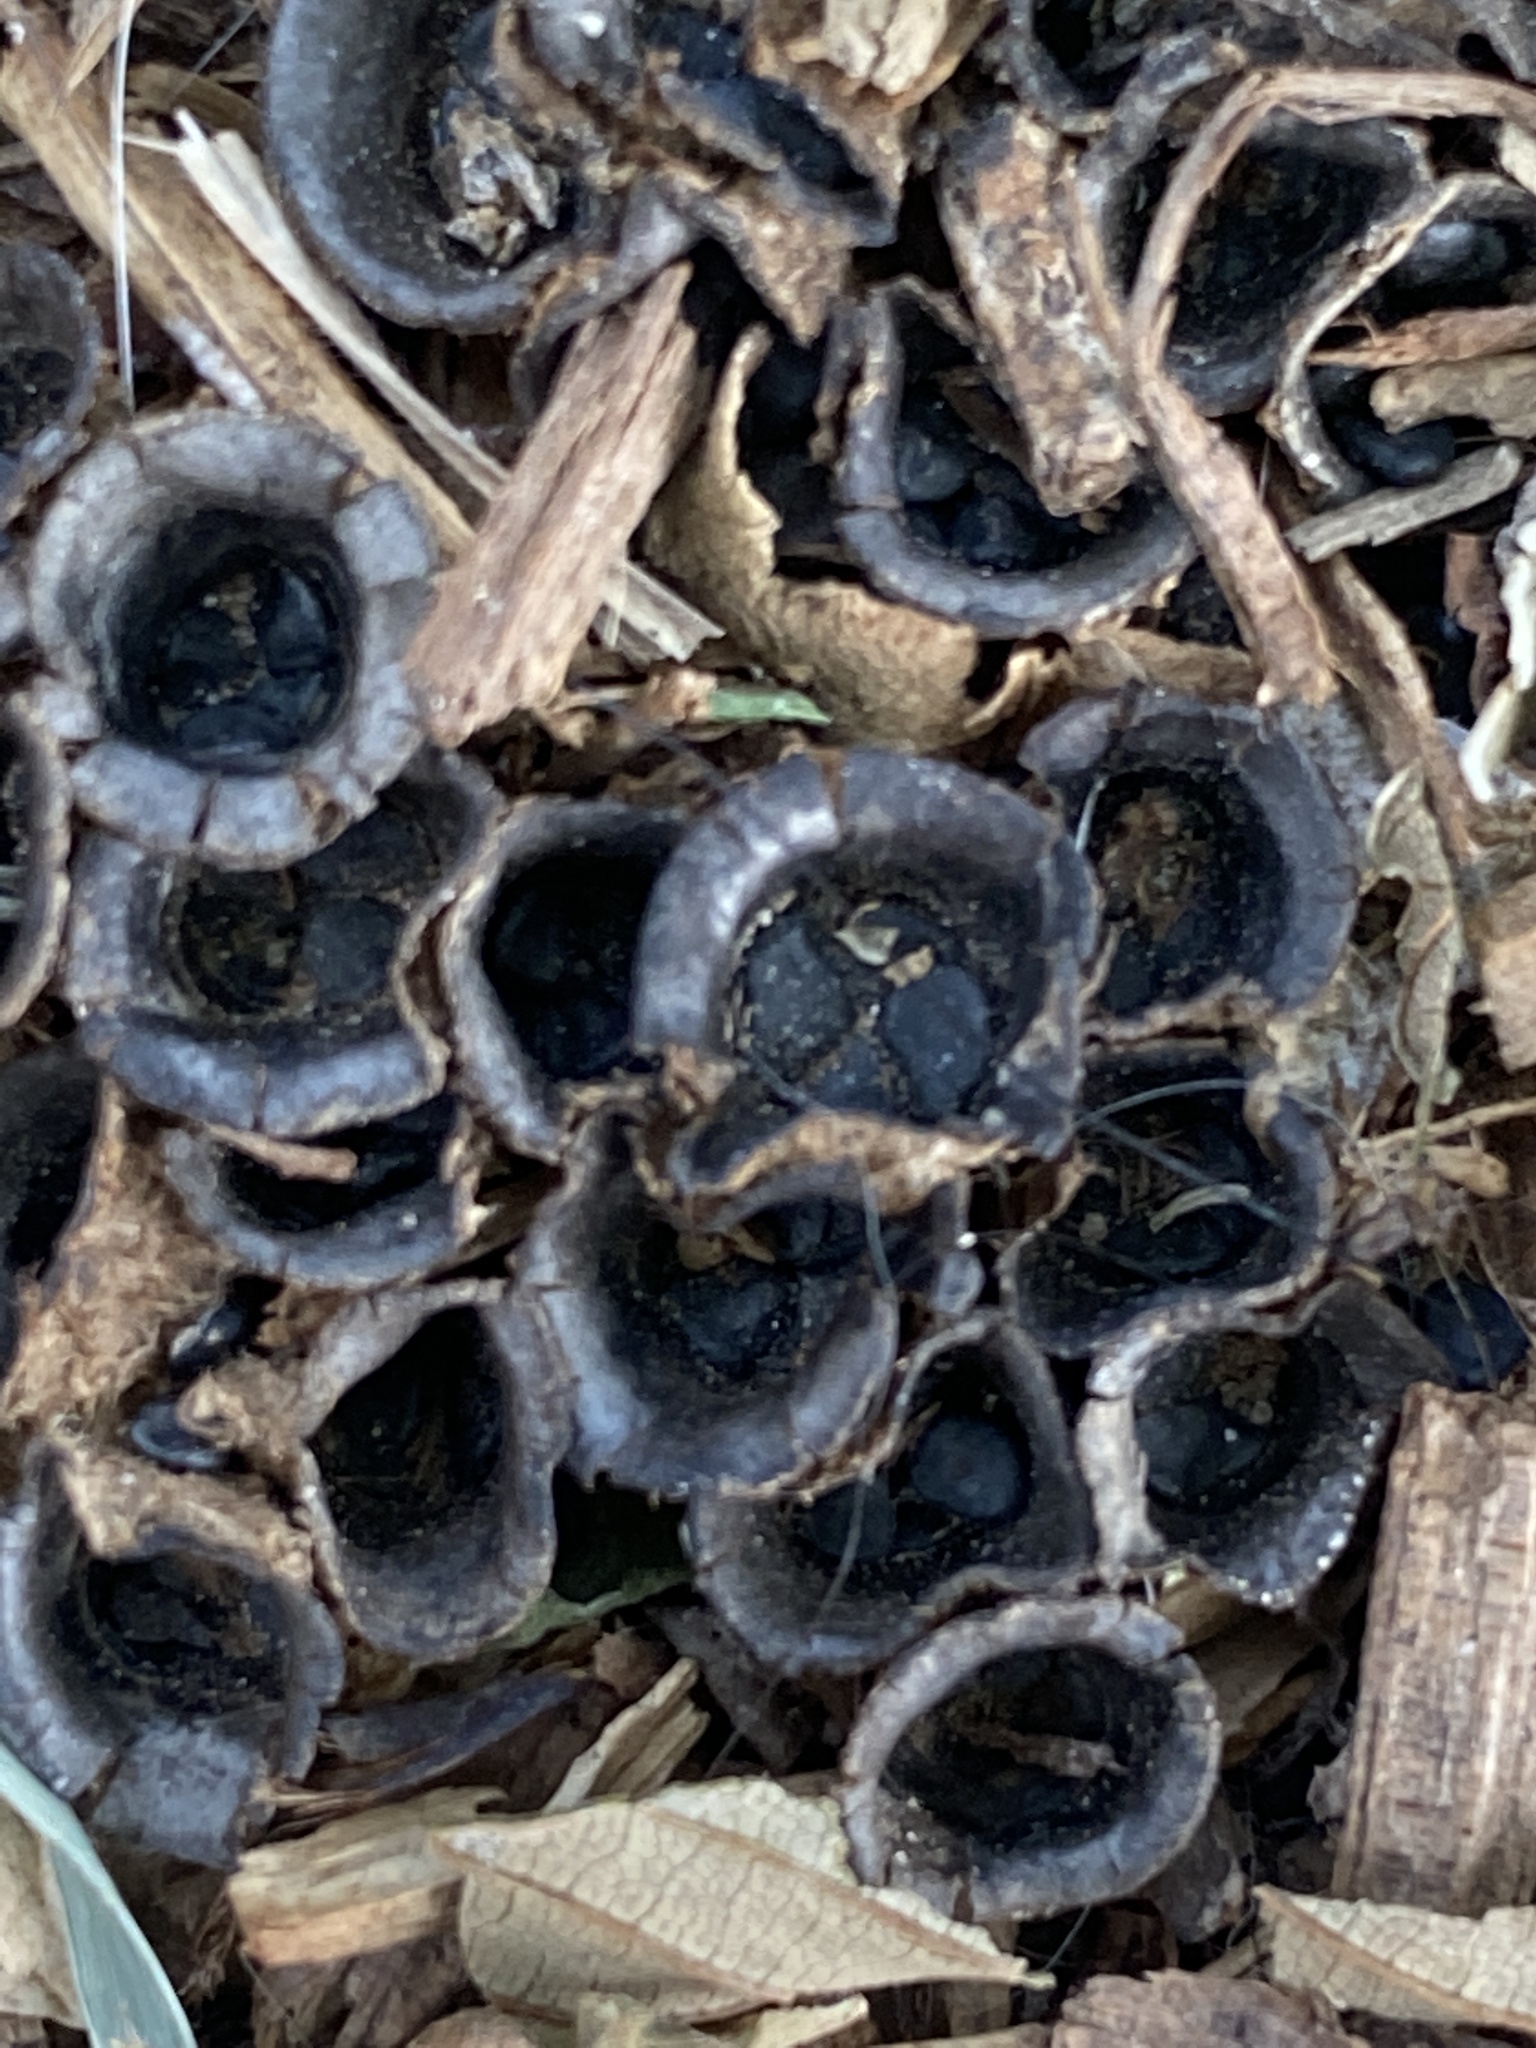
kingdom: Fungi
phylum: Basidiomycota
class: Agaricomycetes
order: Agaricales
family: Agaricaceae
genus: Cyathus
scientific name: Cyathus stercoreus
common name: Dung bird's nest
